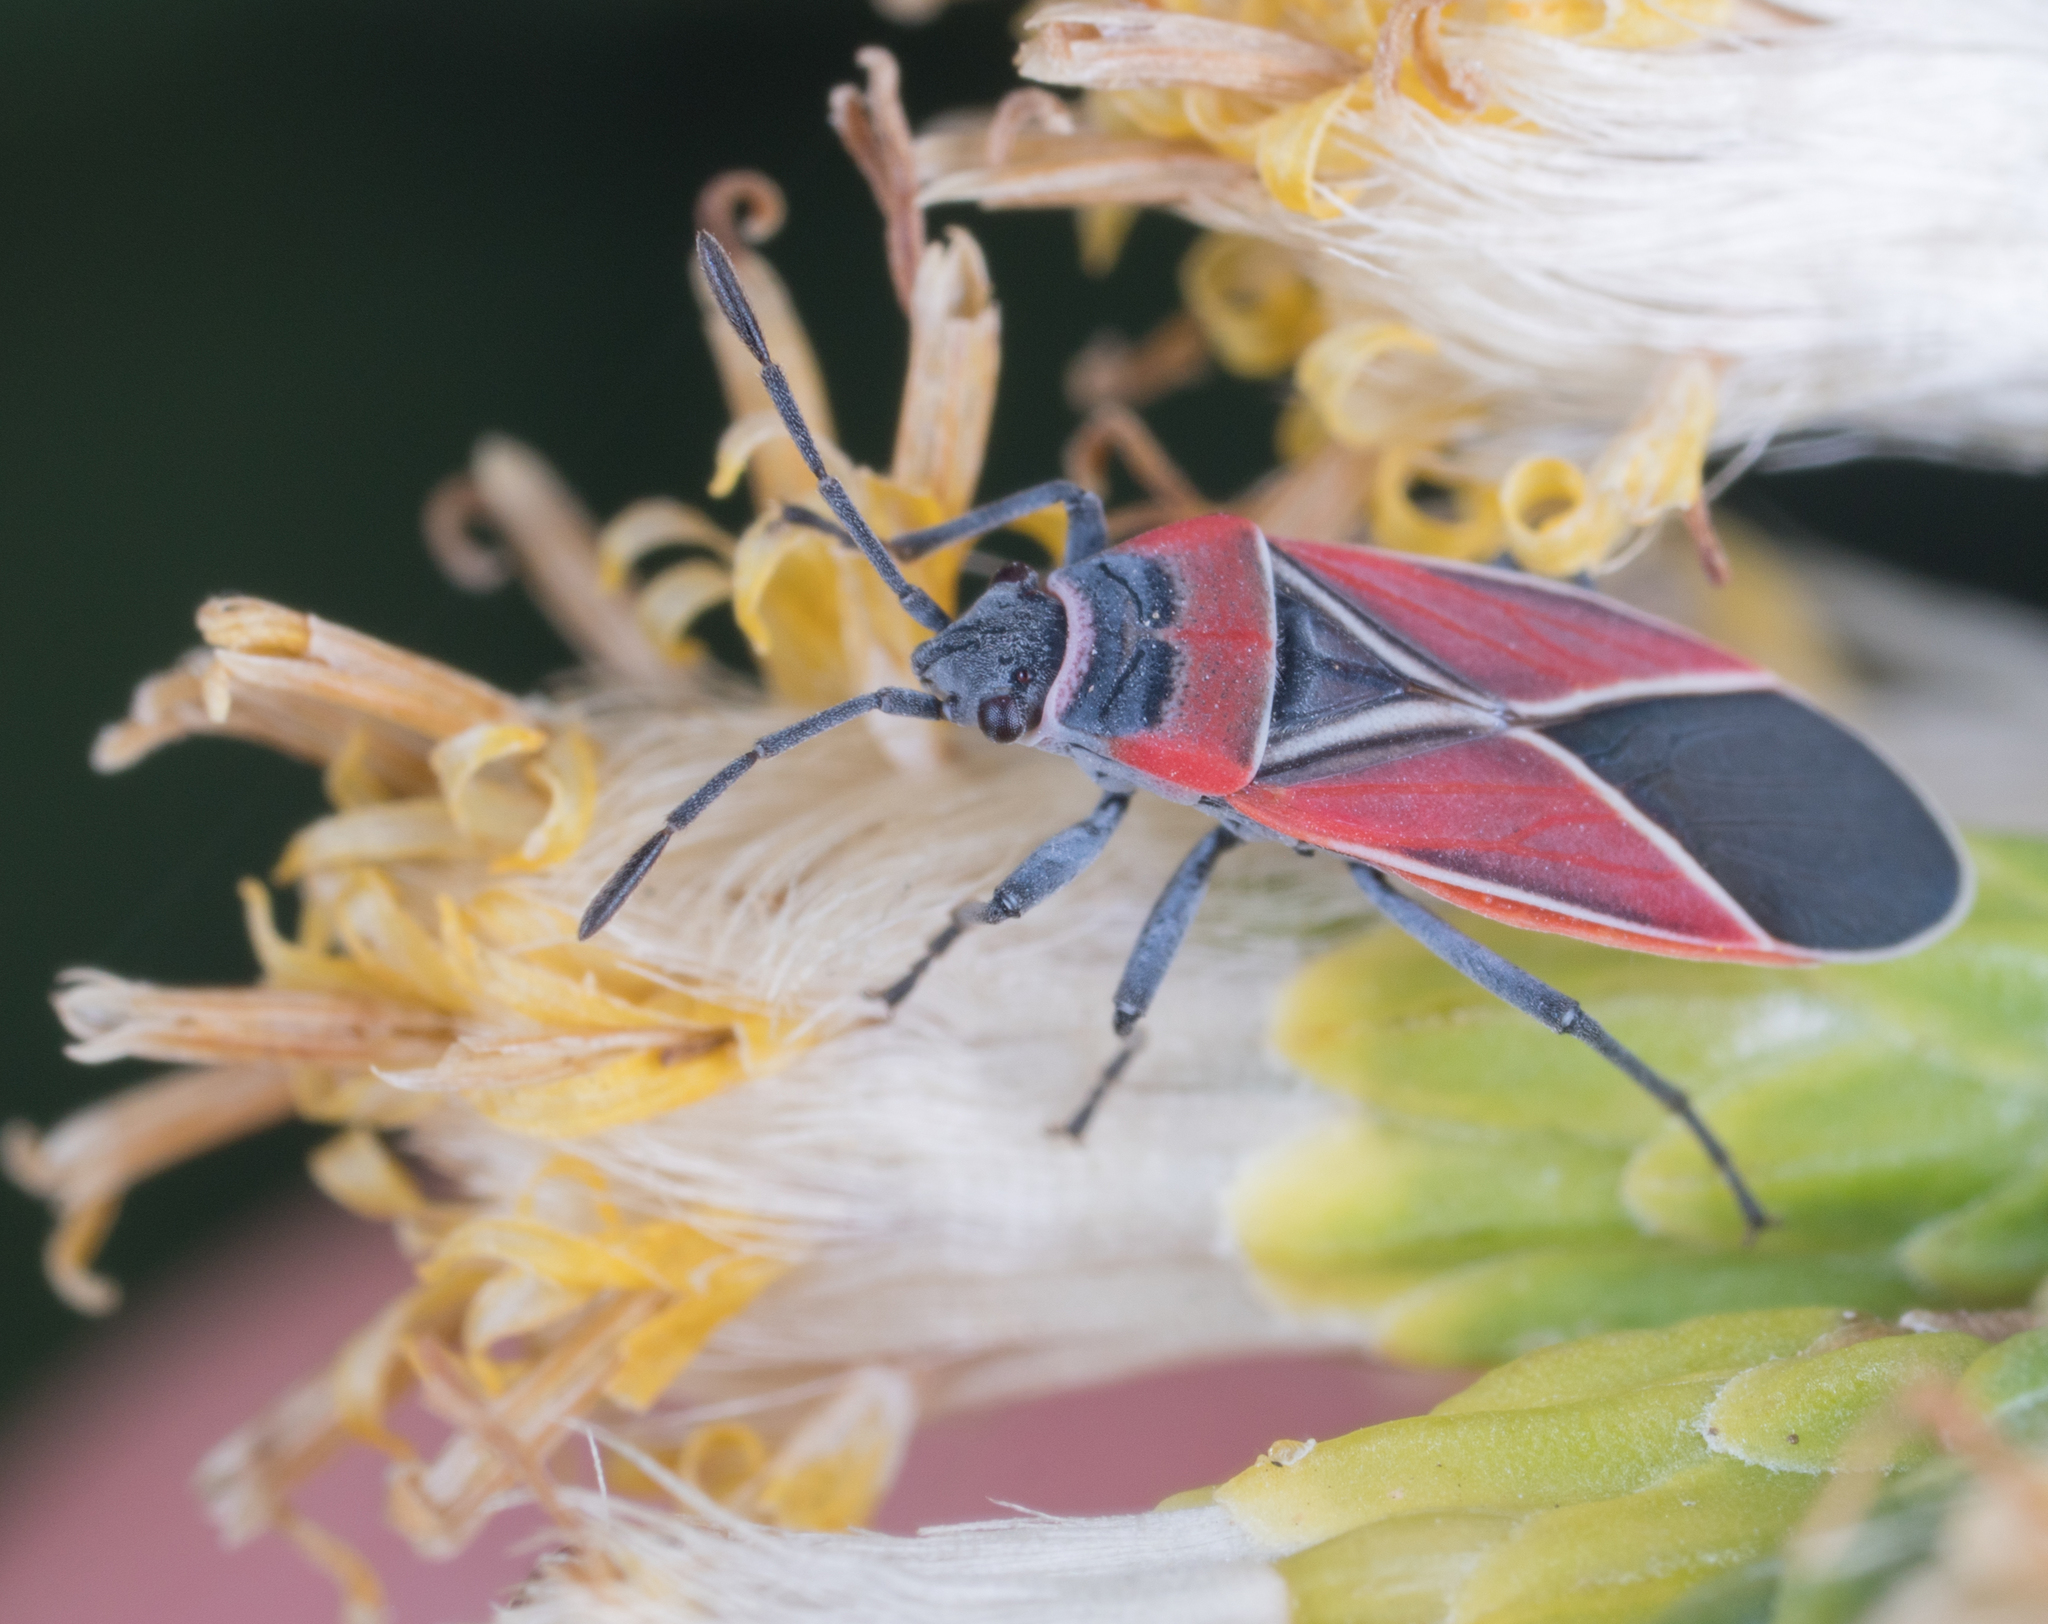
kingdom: Animalia
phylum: Arthropoda
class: Insecta
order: Hemiptera
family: Lygaeidae
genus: Neacoryphus
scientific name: Neacoryphus bicrucis
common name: Lygaeid bug
